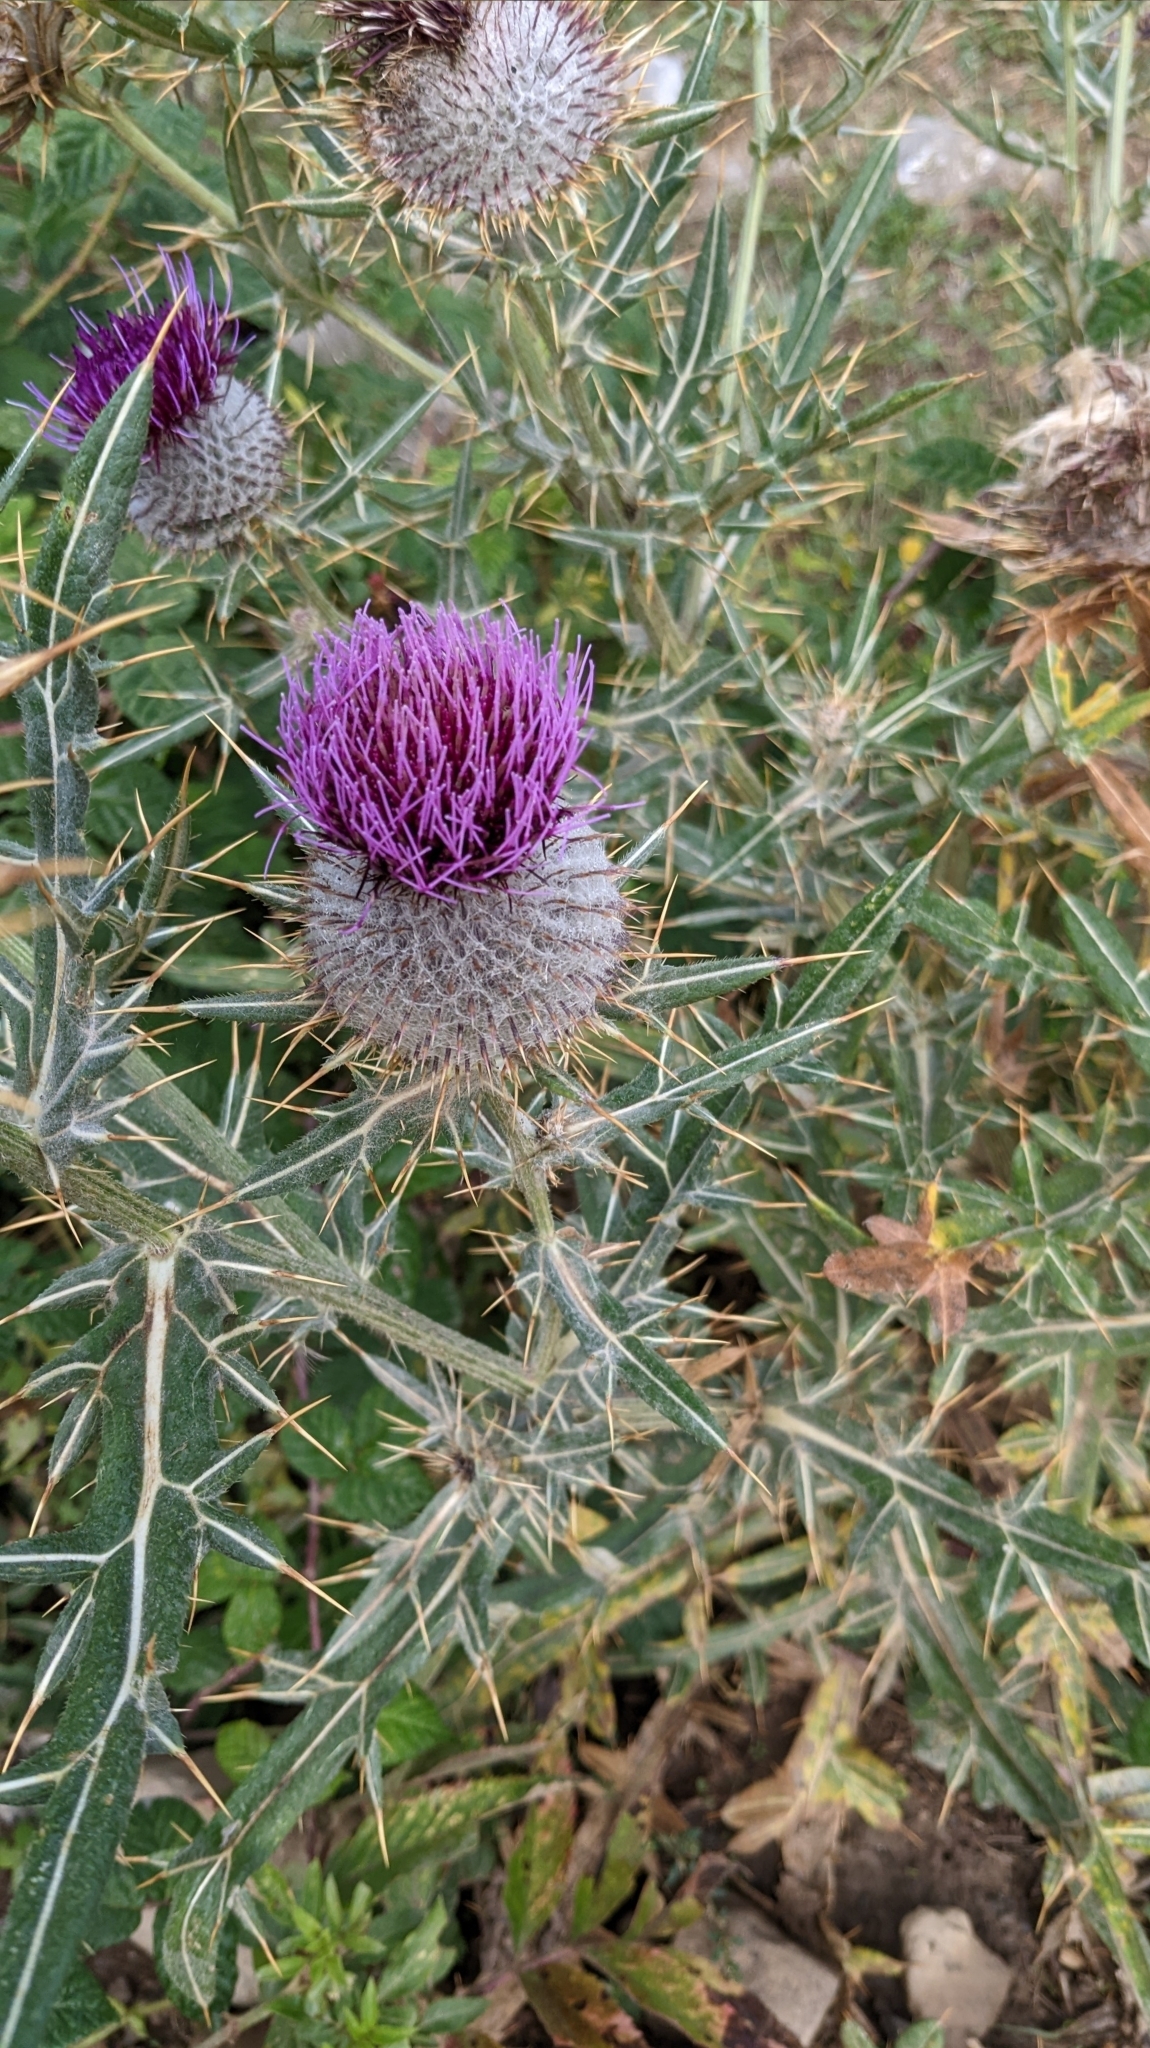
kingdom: Plantae
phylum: Tracheophyta
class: Magnoliopsida
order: Asterales
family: Asteraceae
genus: Lophiolepis
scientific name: Lophiolepis eriophora
